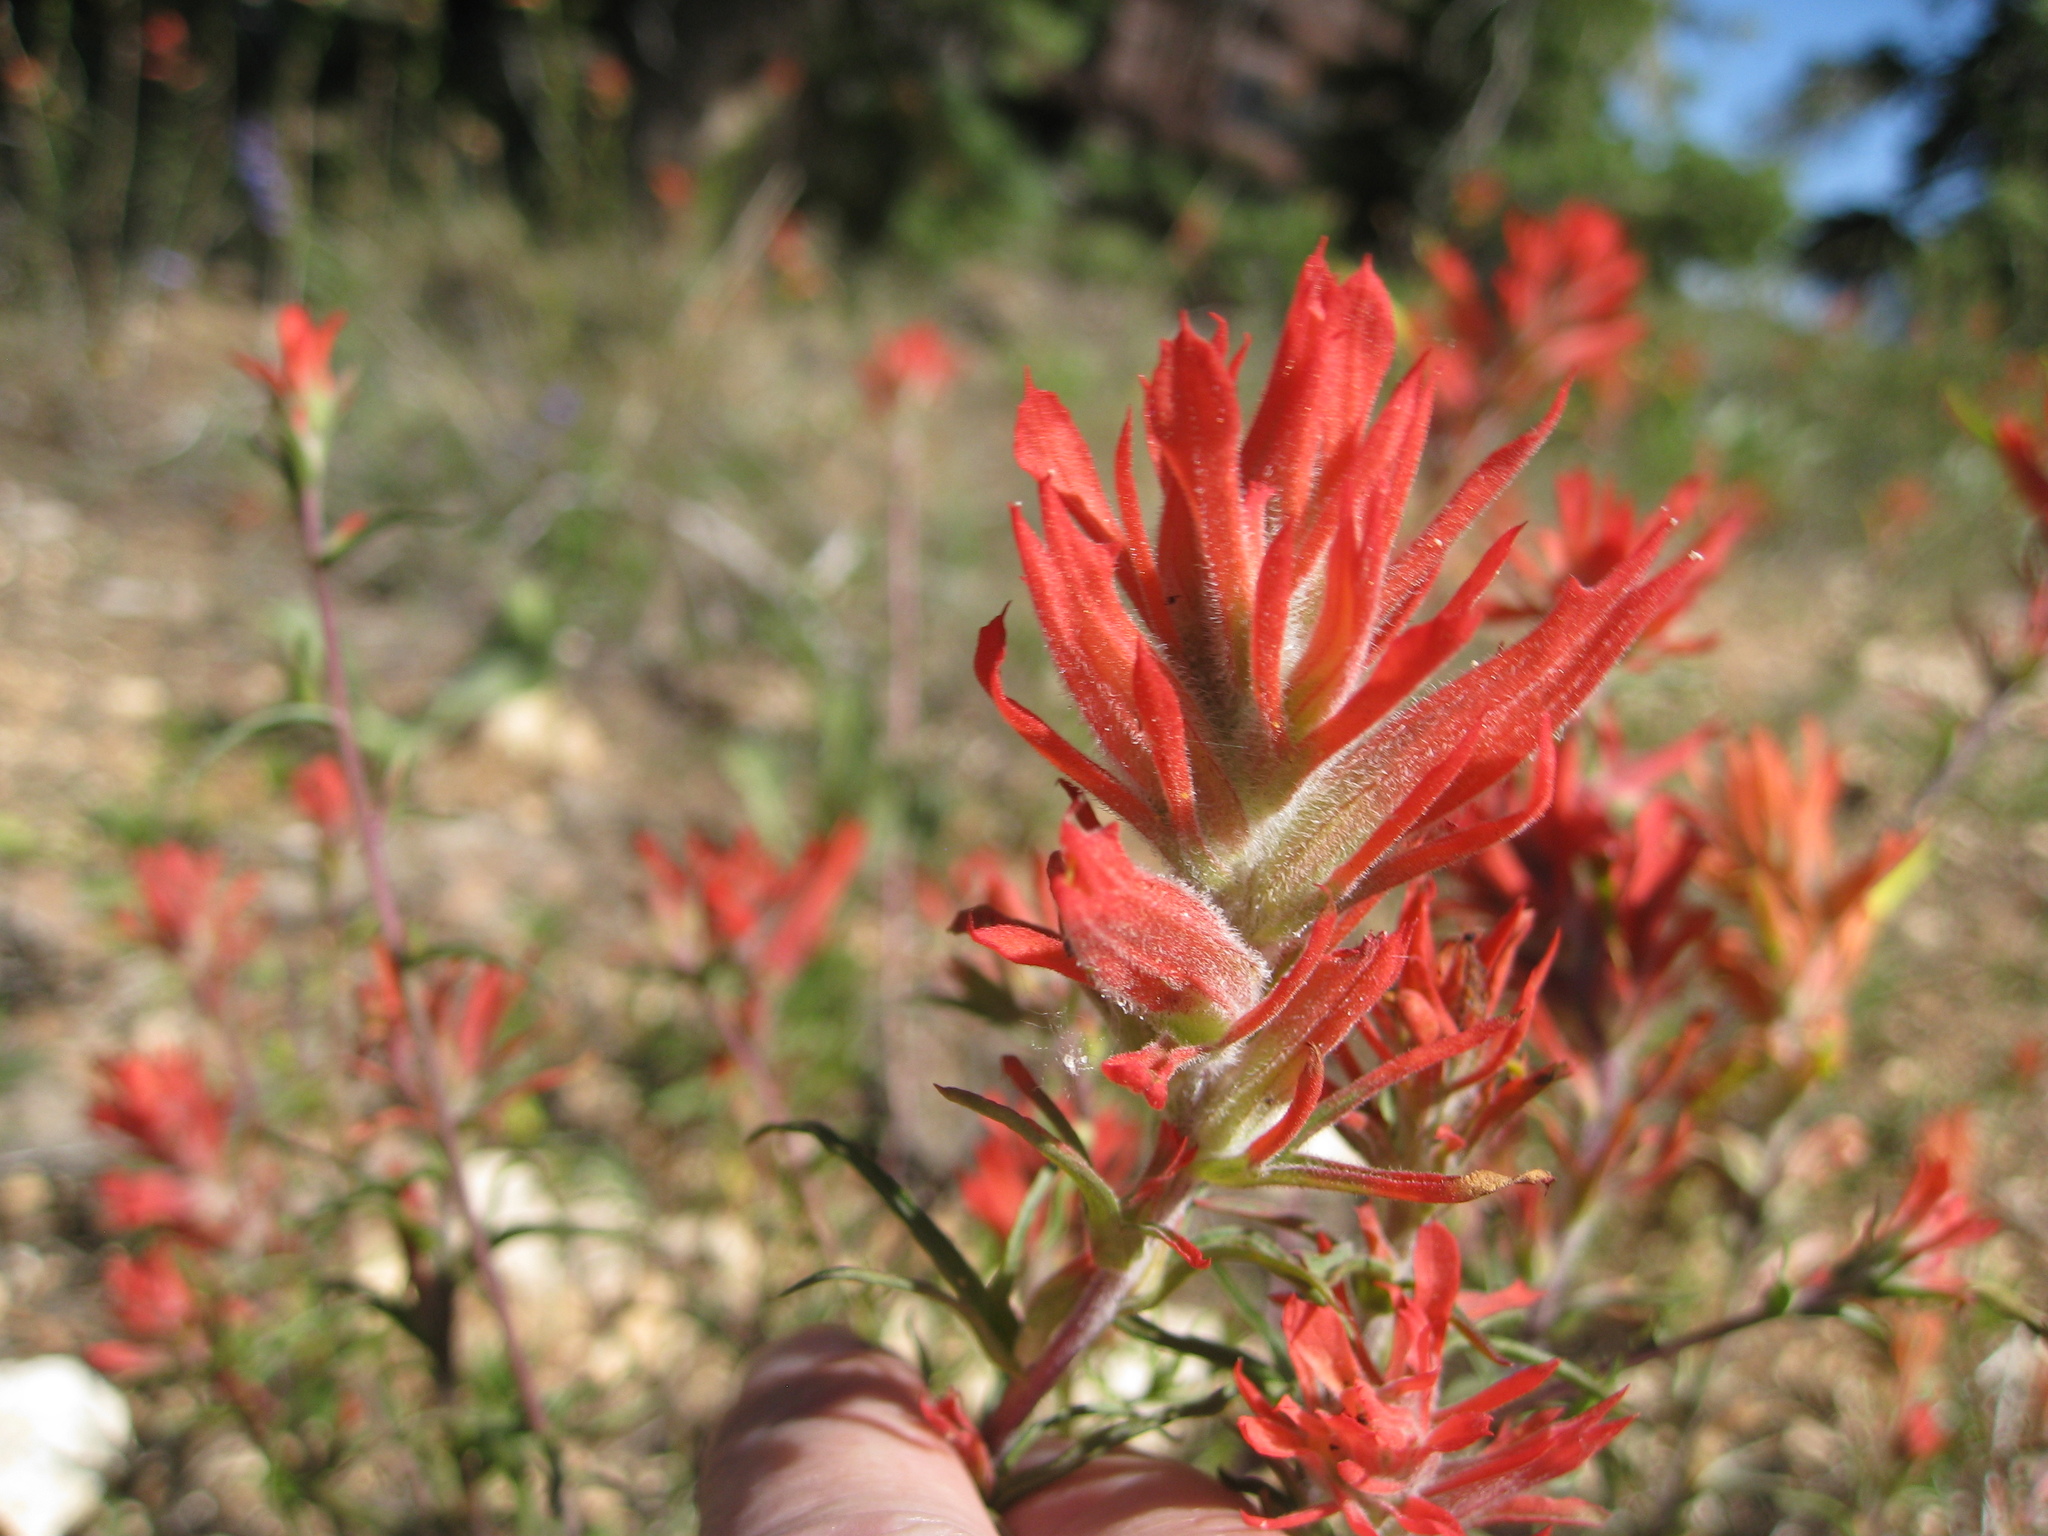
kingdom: Plantae
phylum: Tracheophyta
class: Magnoliopsida
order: Lamiales
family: Orobanchaceae
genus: Castilleja
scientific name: Castilleja linariifolia
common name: Wyoming paintbrush
